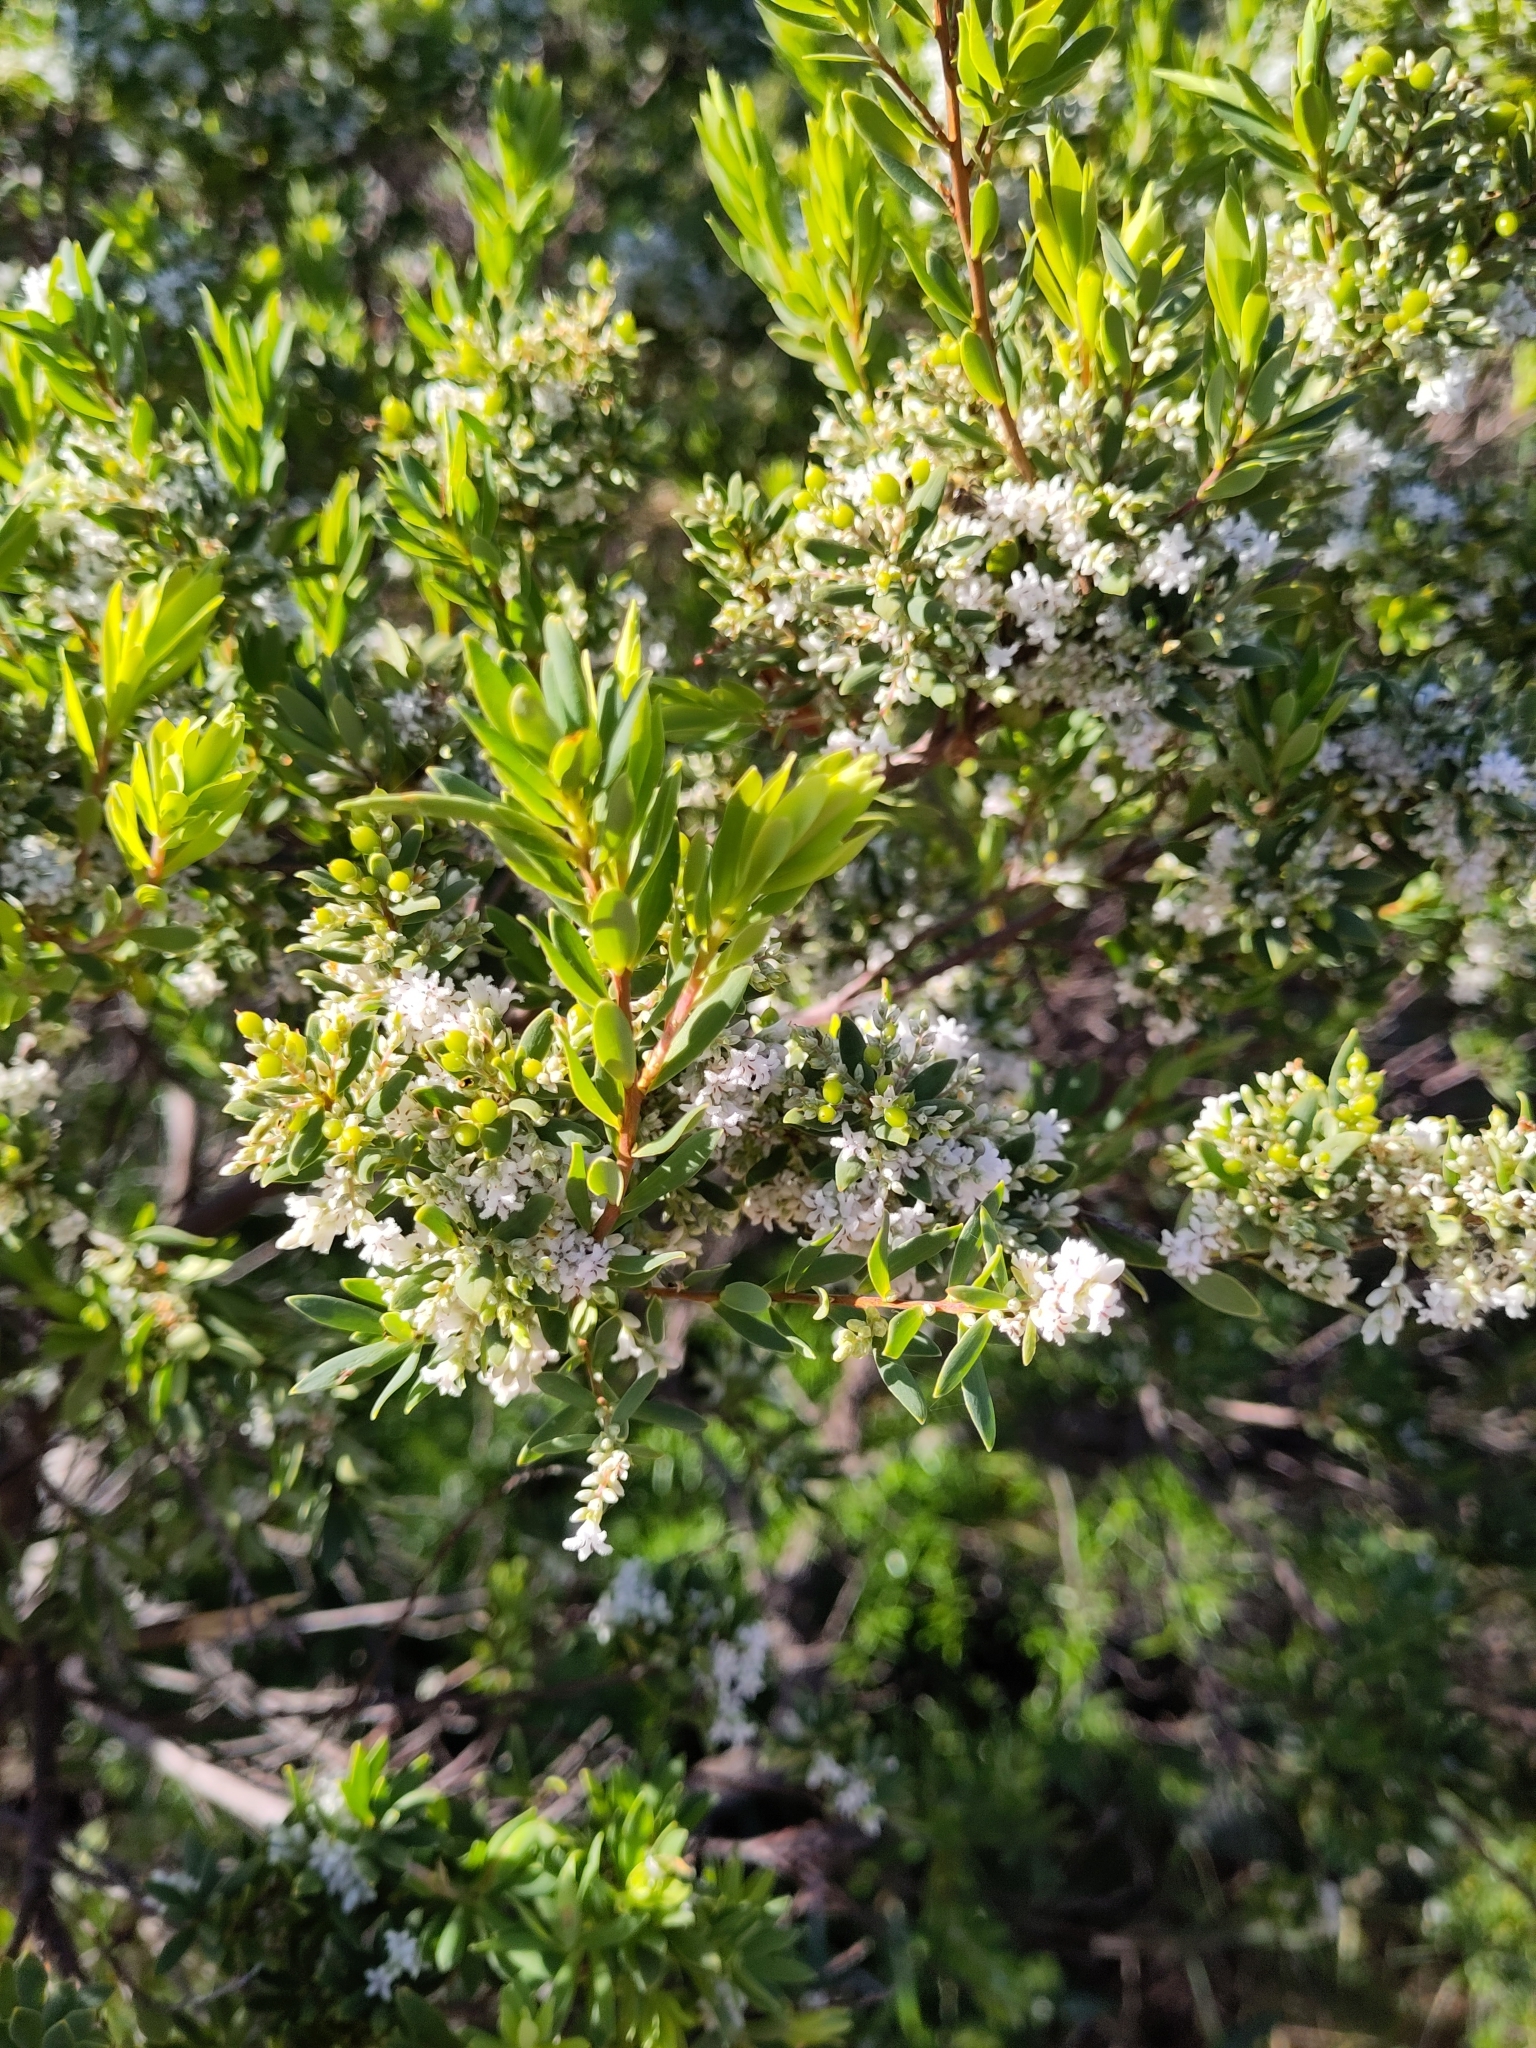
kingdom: Plantae
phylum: Tracheophyta
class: Magnoliopsida
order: Ericales
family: Ericaceae
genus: Leptecophylla
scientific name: Leptecophylla parvifolia
